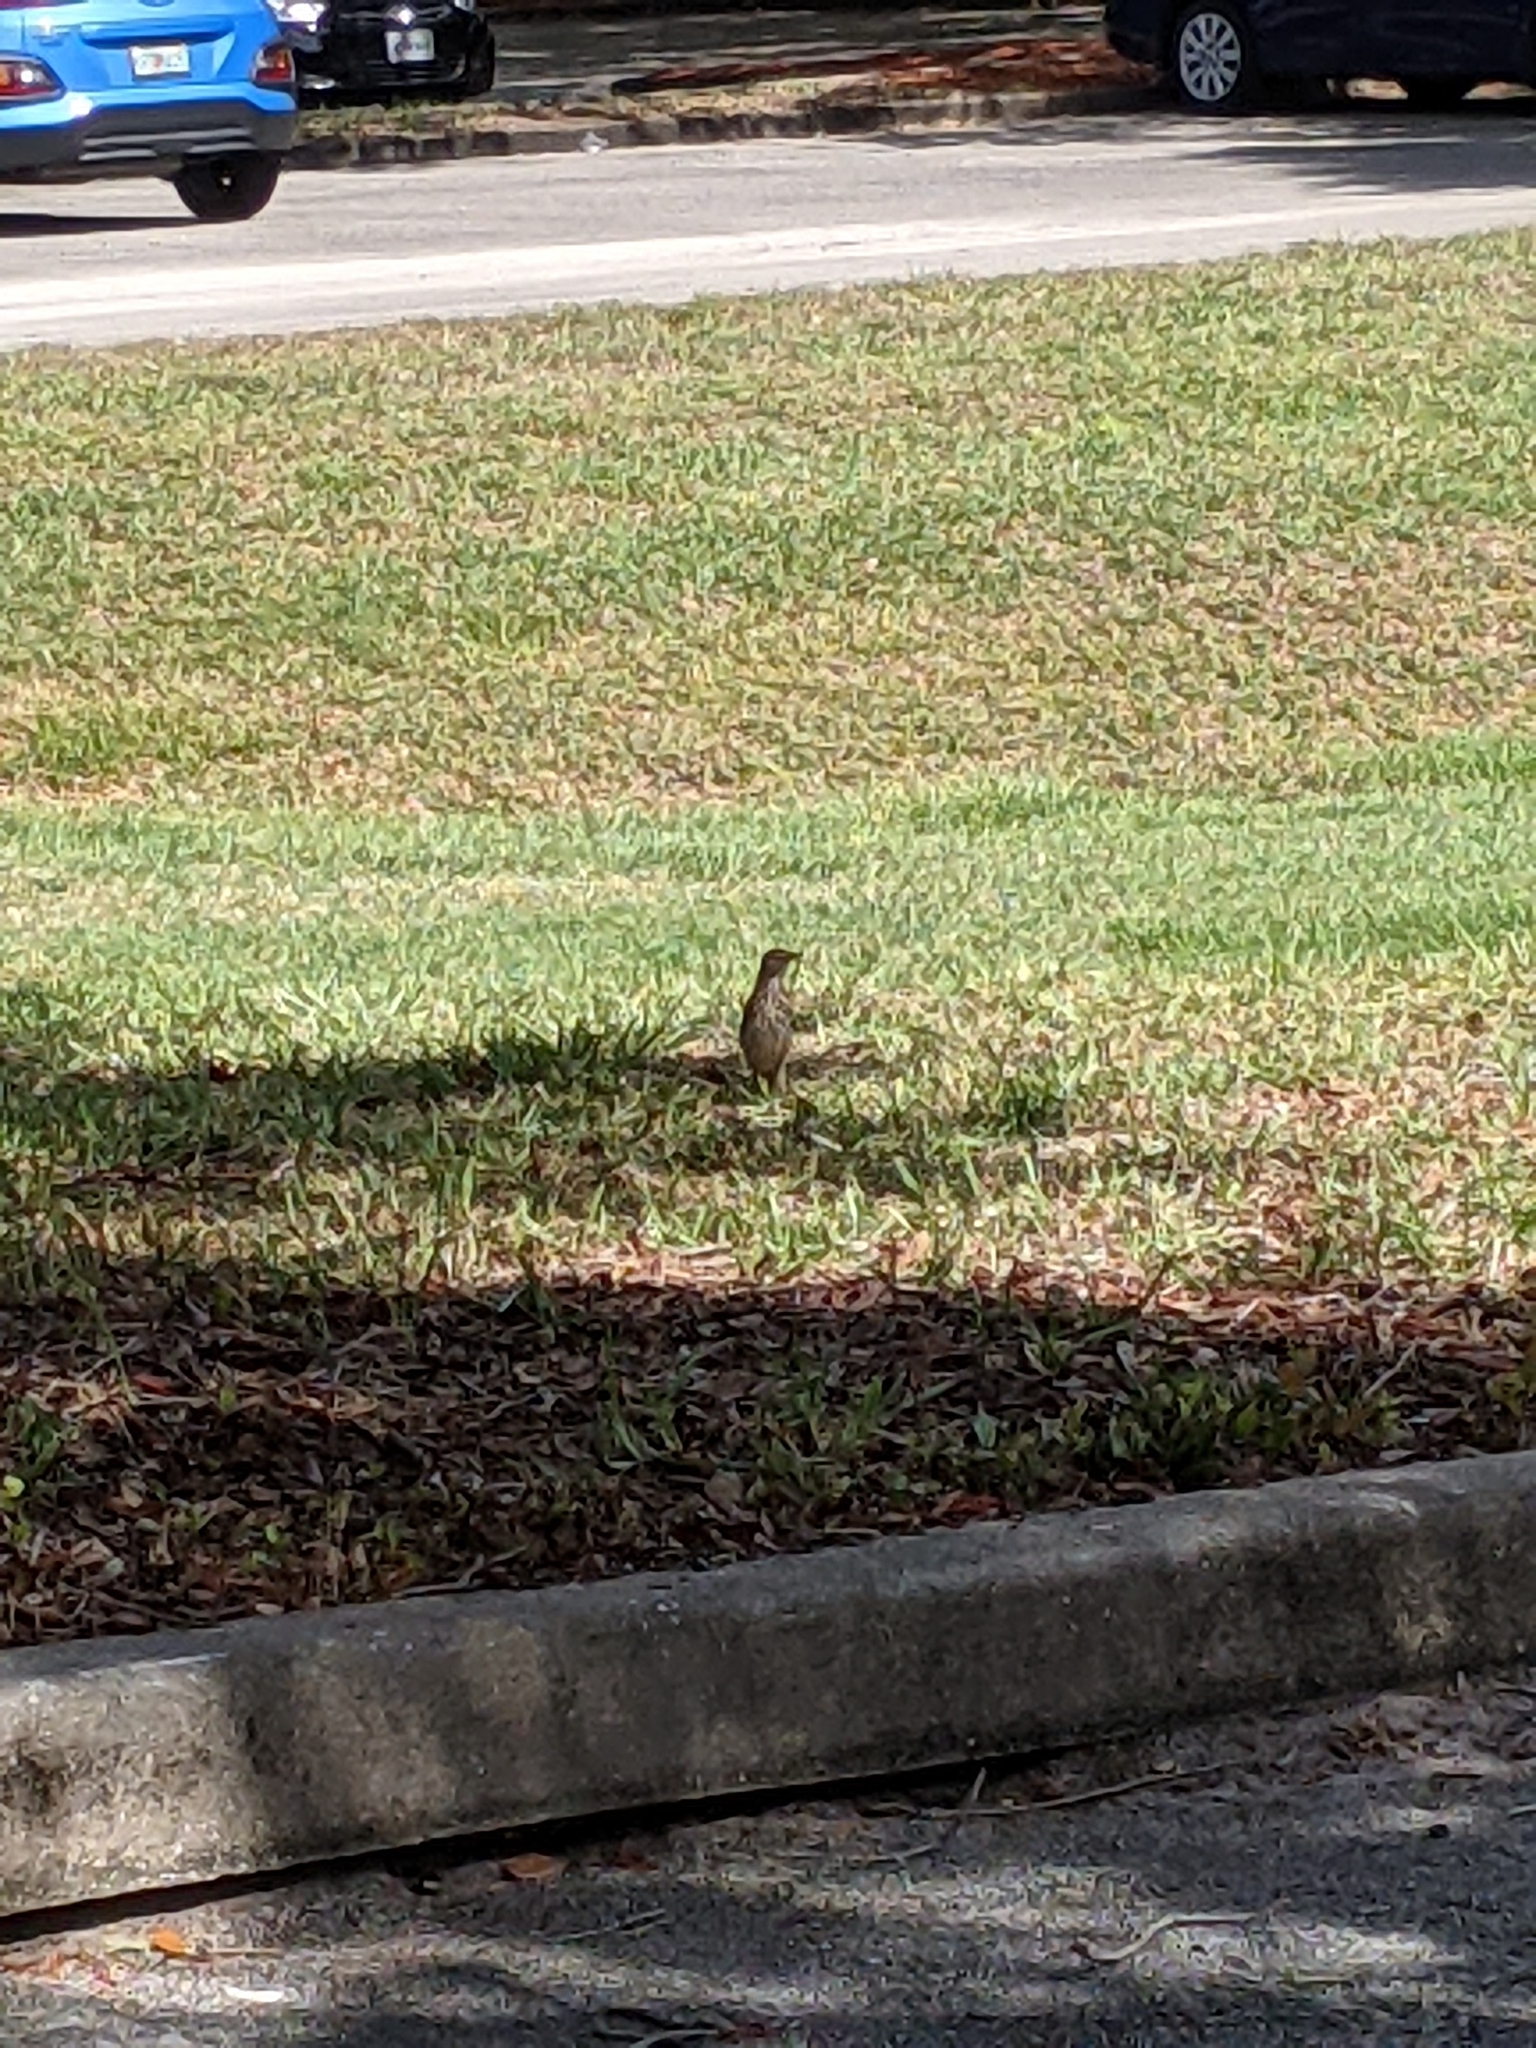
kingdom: Animalia
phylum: Chordata
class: Aves
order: Passeriformes
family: Mimidae
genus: Toxostoma
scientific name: Toxostoma rufum
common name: Brown thrasher
